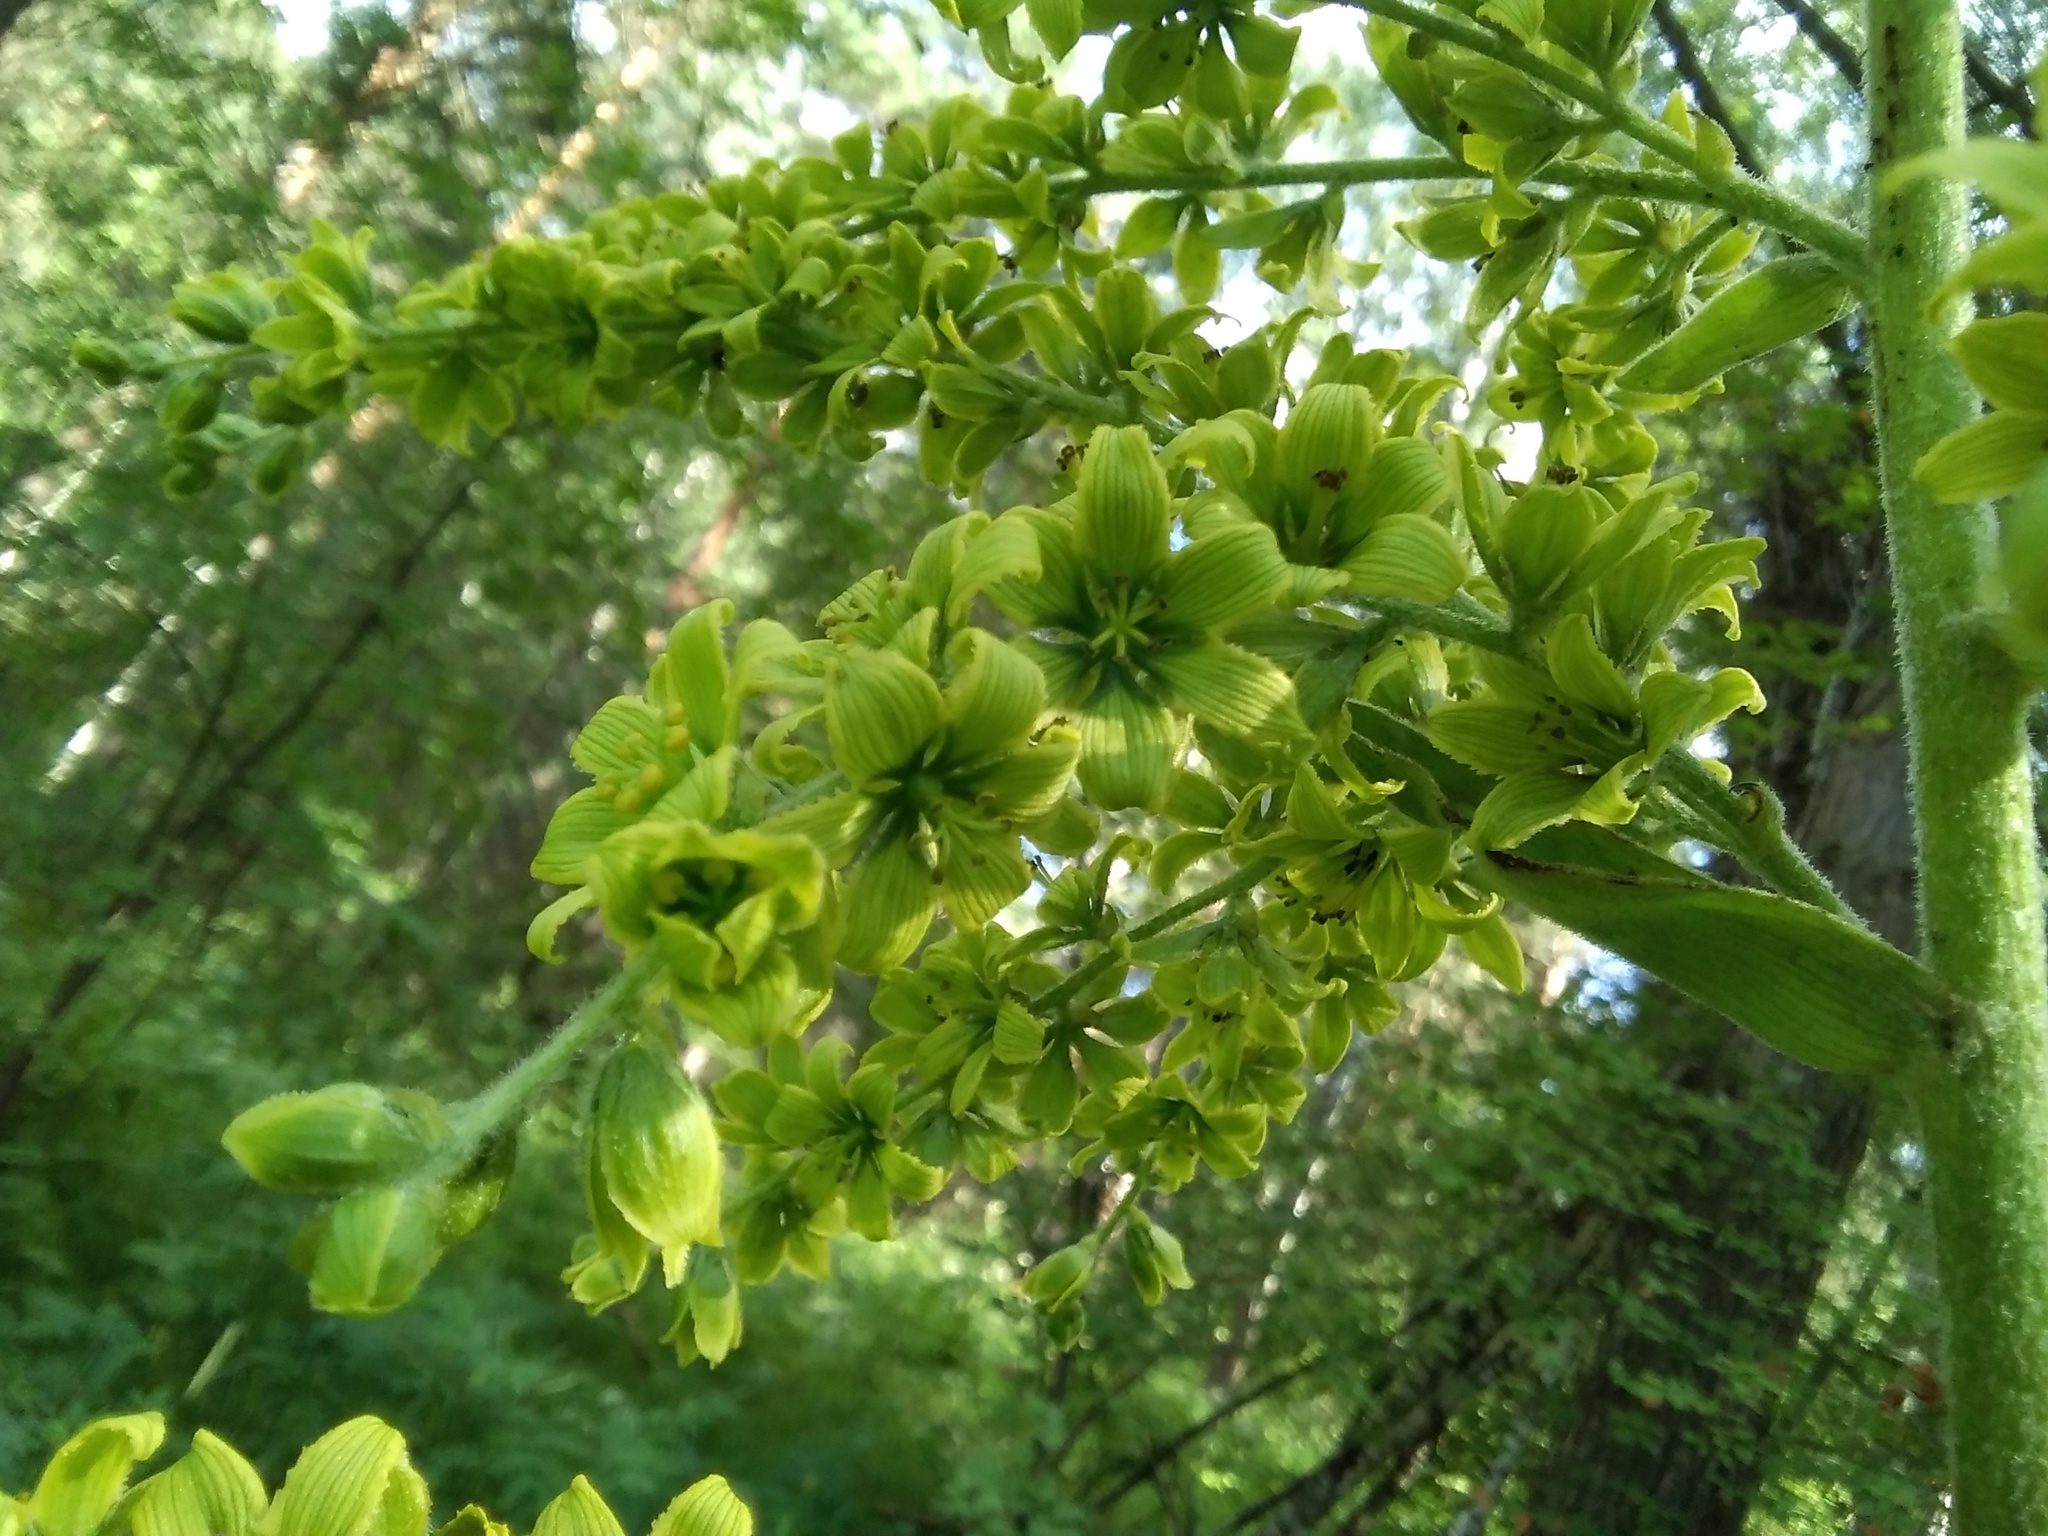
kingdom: Plantae
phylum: Tracheophyta
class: Liliopsida
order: Liliales
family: Melanthiaceae
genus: Veratrum
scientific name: Veratrum lobelianum
